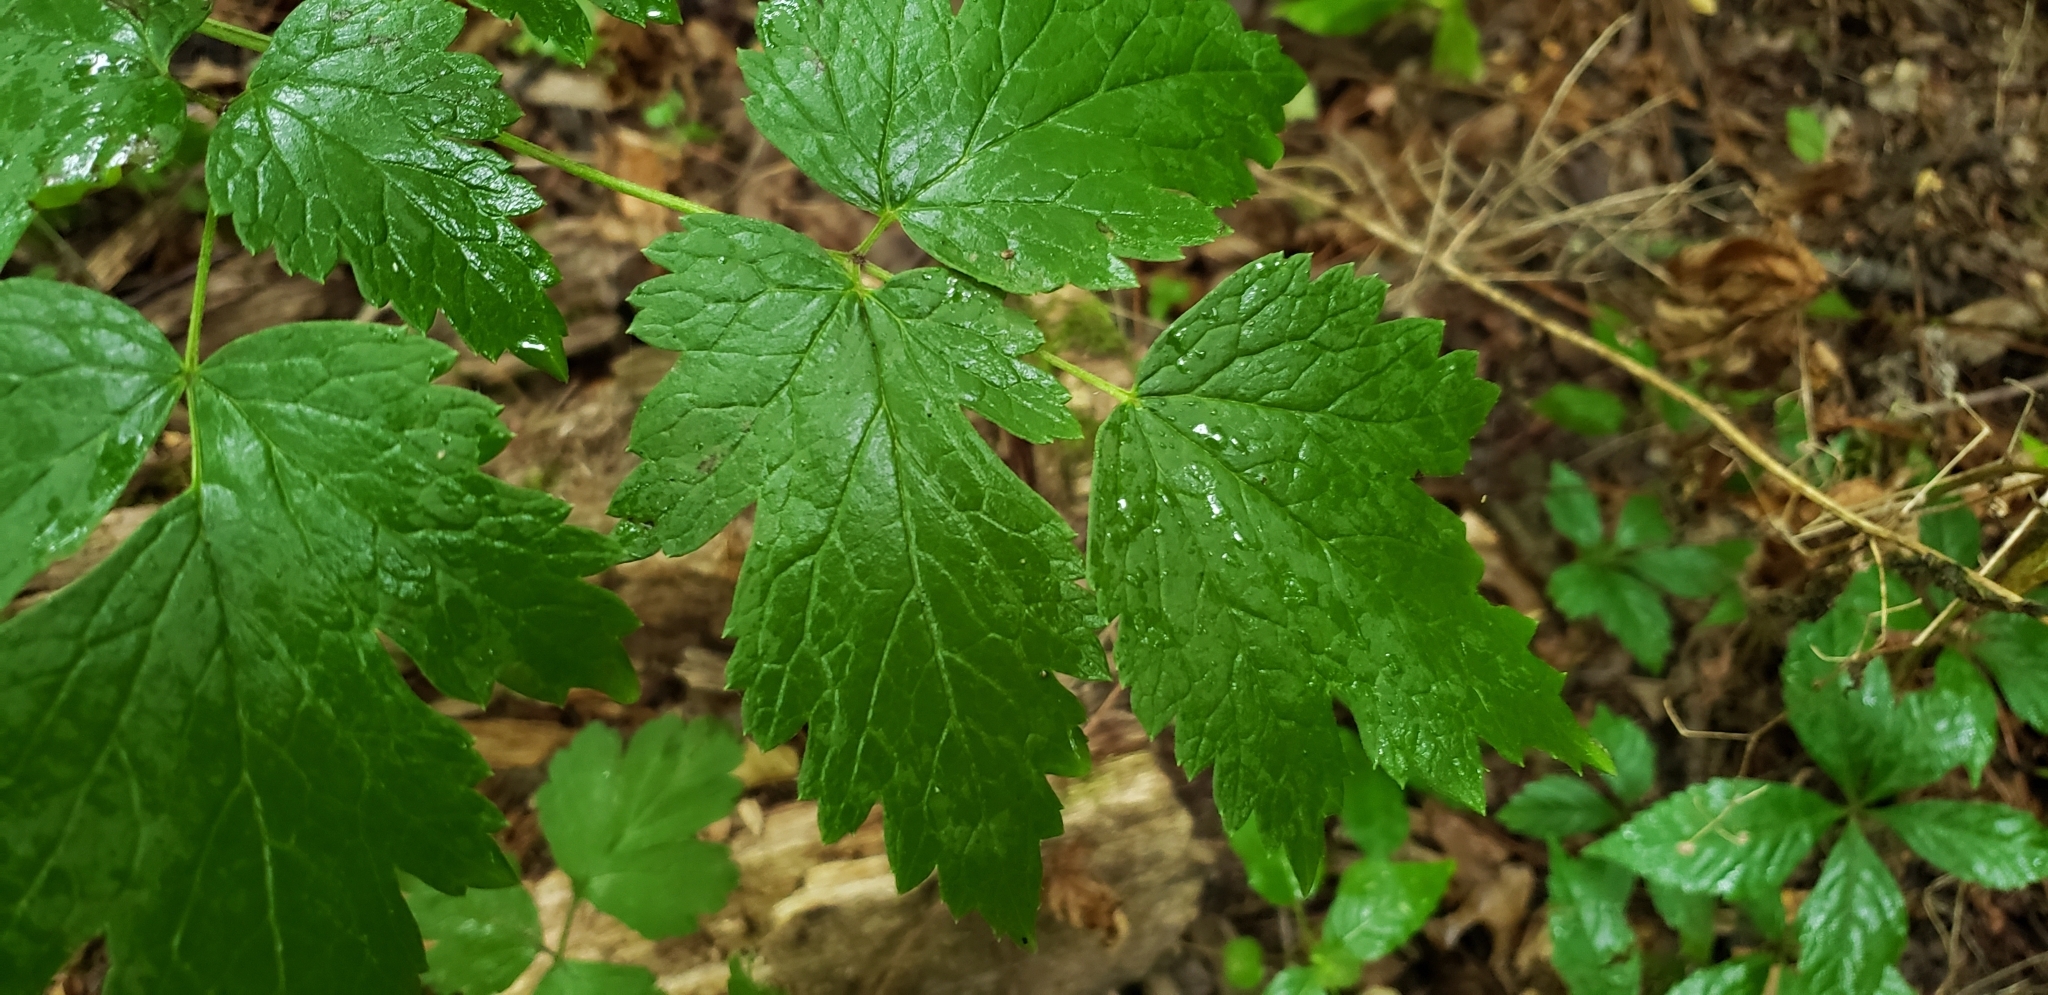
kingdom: Plantae
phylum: Tracheophyta
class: Magnoliopsida
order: Ranunculales
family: Ranunculaceae
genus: Actaea
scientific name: Actaea rubra
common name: Red baneberry
